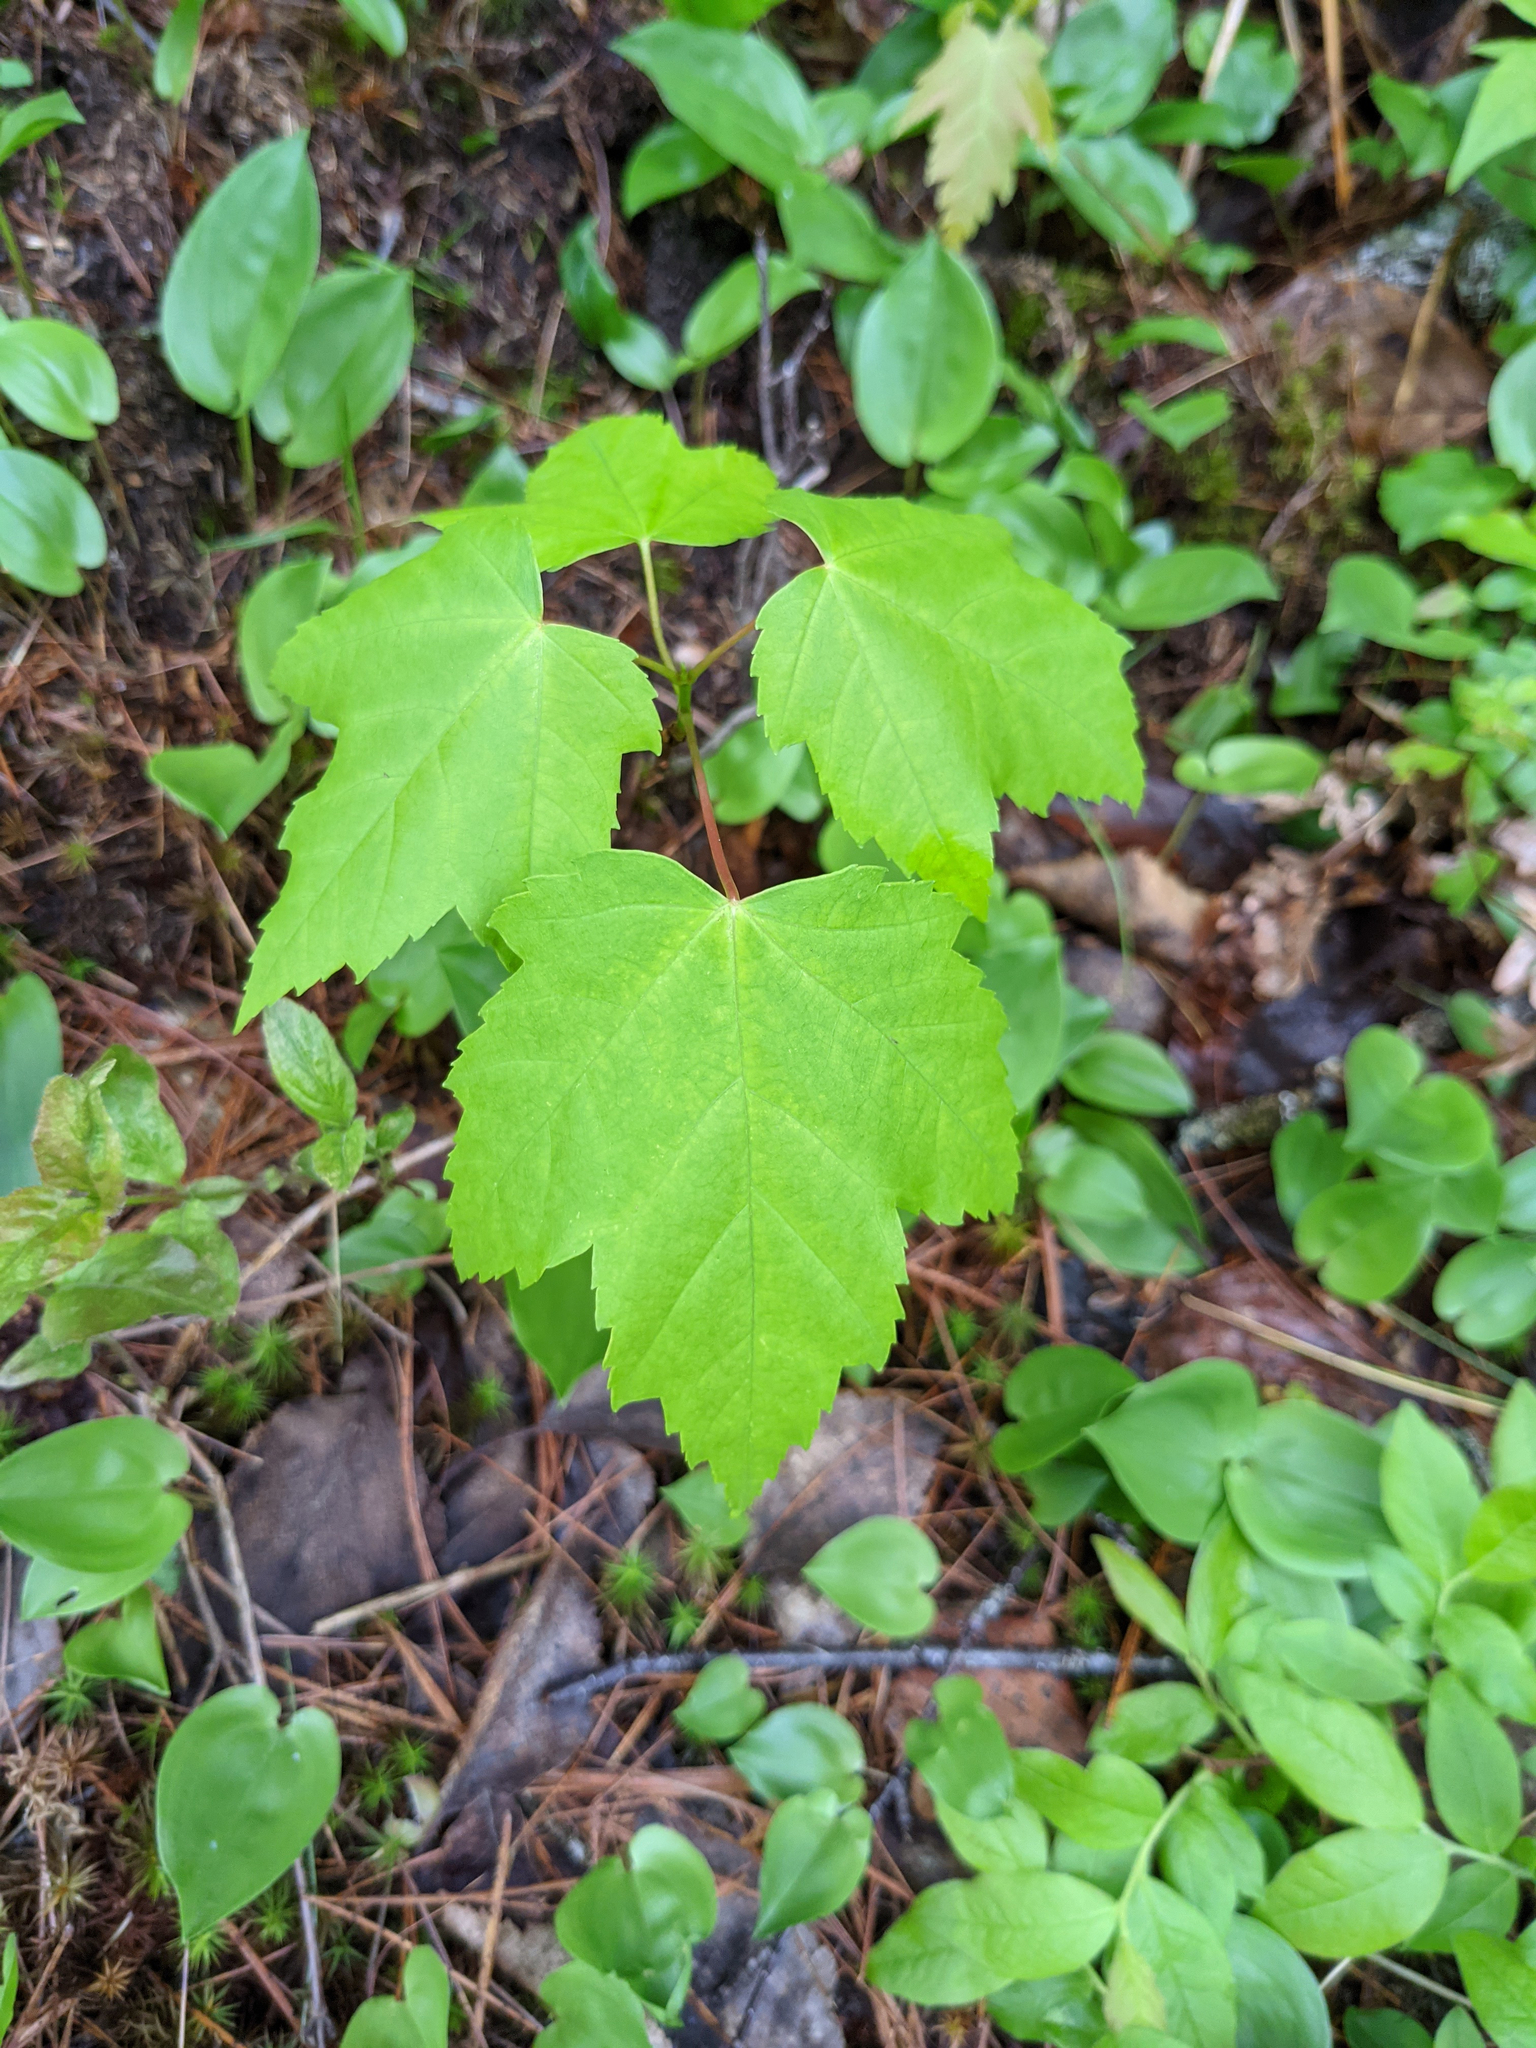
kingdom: Plantae
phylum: Tracheophyta
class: Magnoliopsida
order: Sapindales
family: Sapindaceae
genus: Acer
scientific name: Acer rubrum
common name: Red maple
